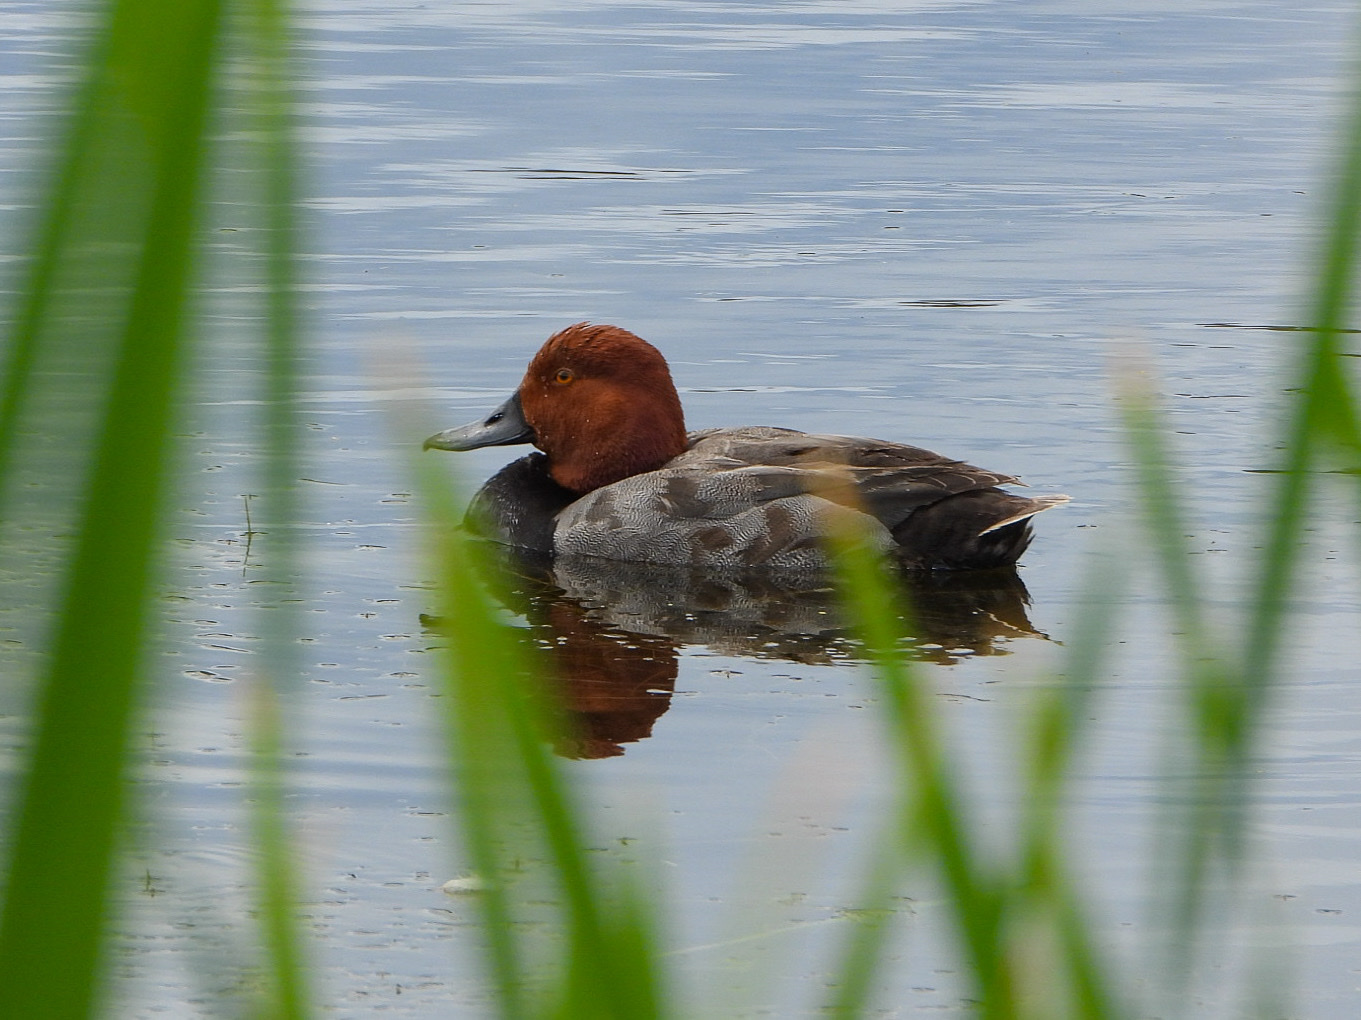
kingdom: Animalia
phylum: Chordata
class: Aves
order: Anseriformes
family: Anatidae
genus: Aythya
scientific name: Aythya americana
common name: Redhead
